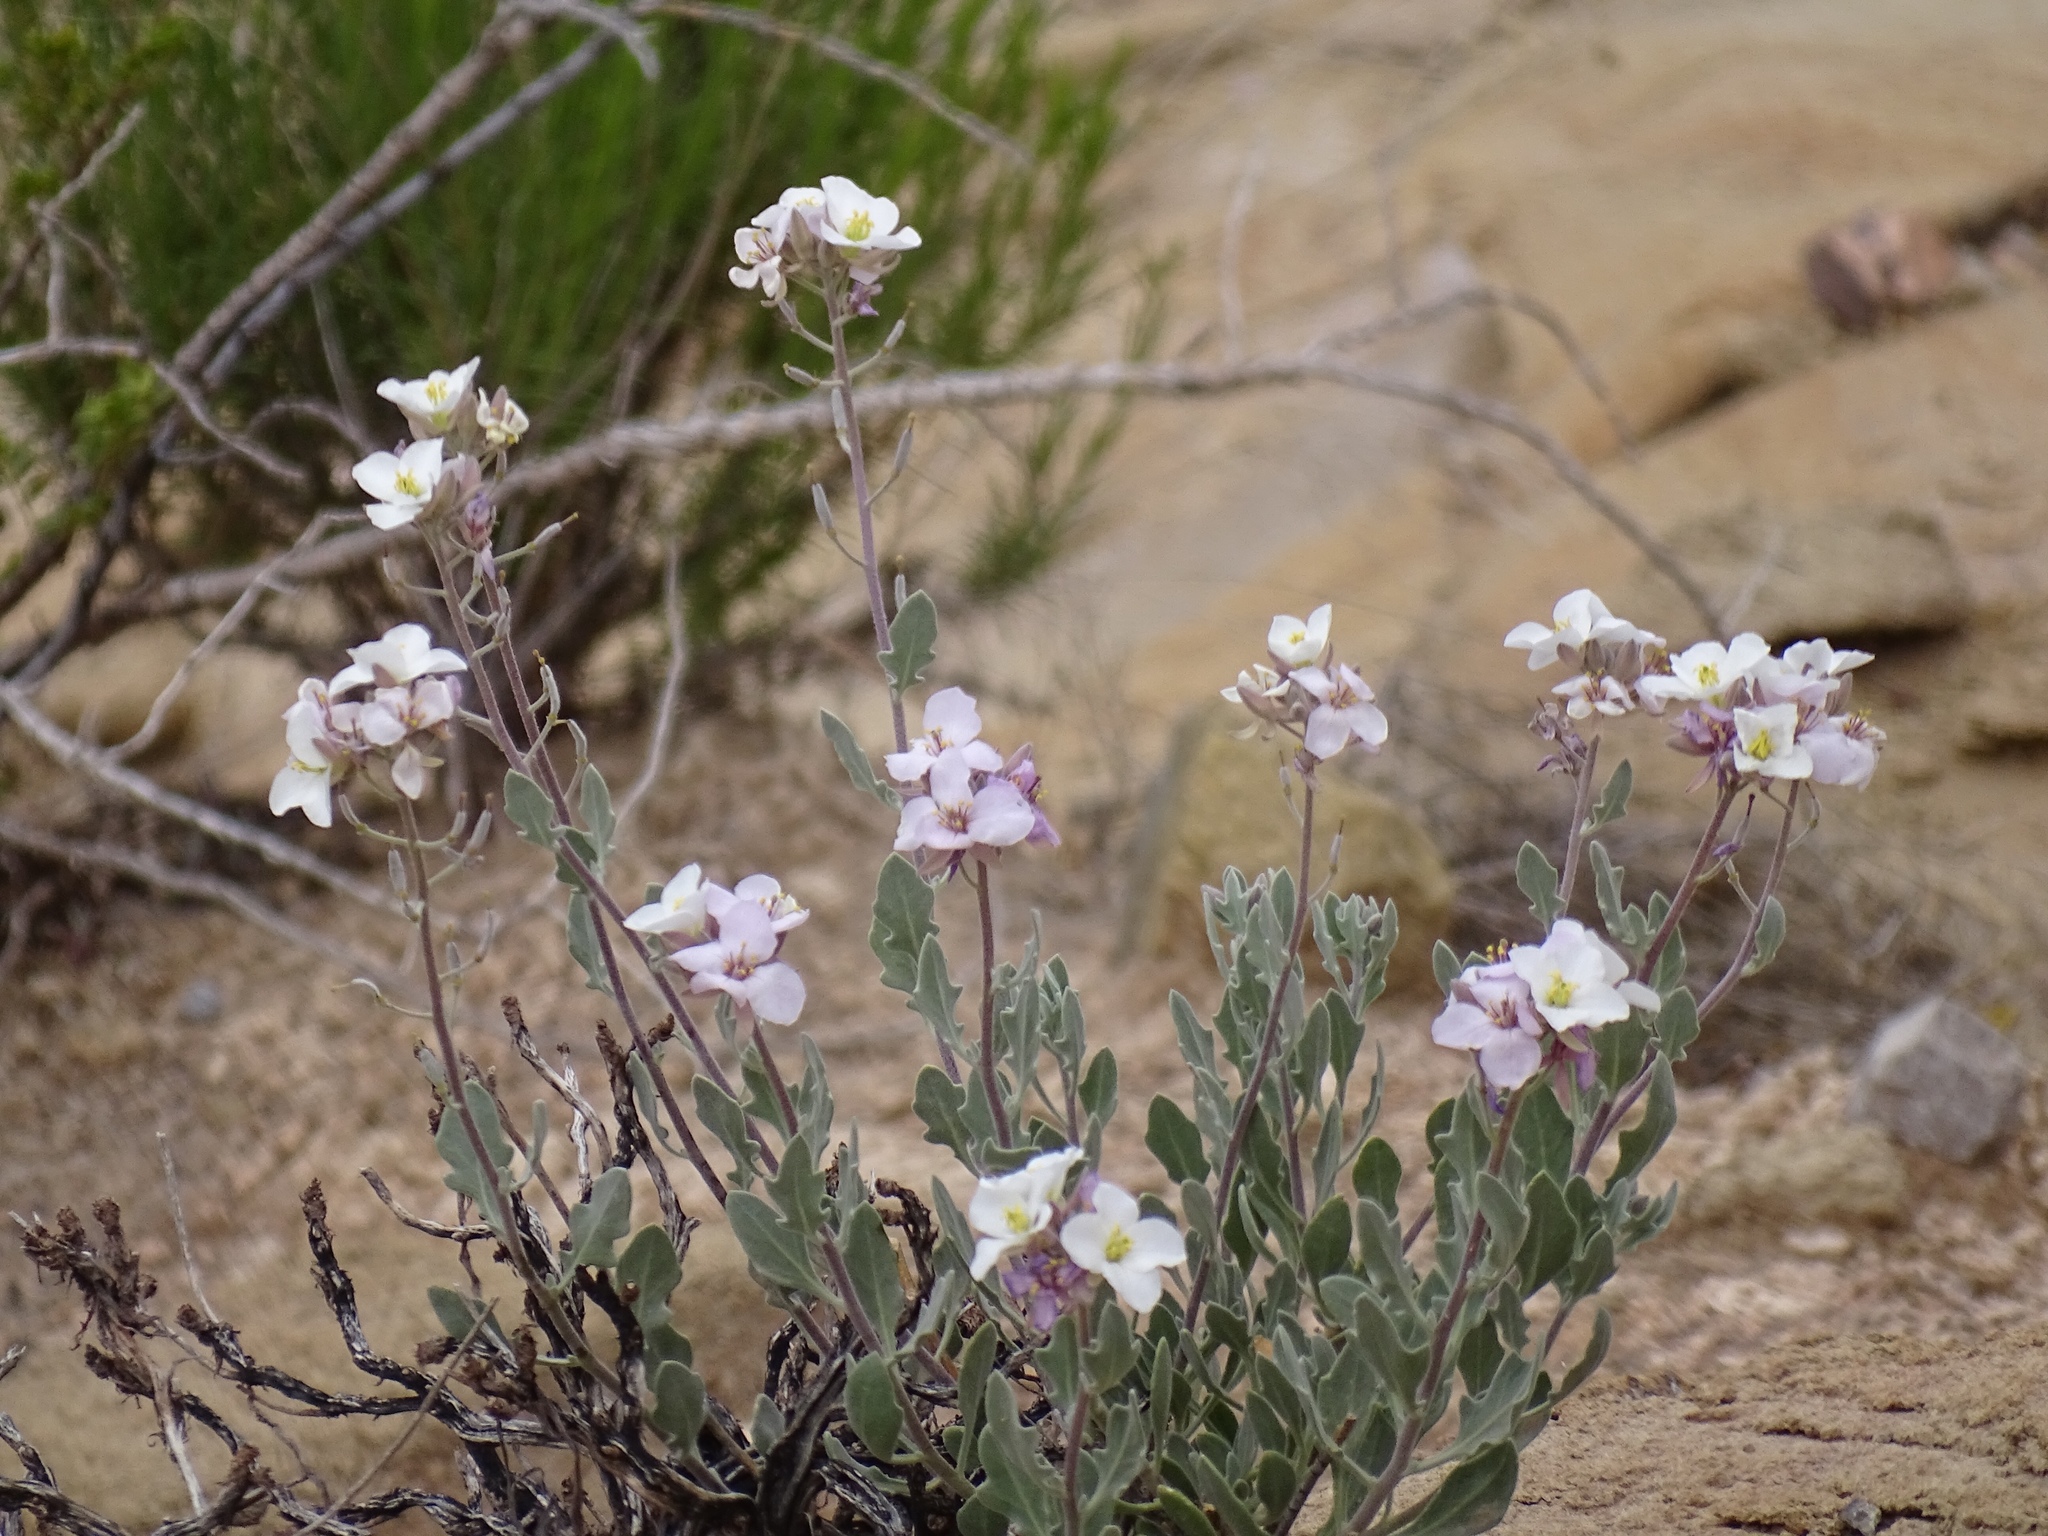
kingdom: Plantae
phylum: Tracheophyta
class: Magnoliopsida
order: Brassicales
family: Brassicaceae
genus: Nerisyrenia
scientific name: Nerisyrenia camporum
